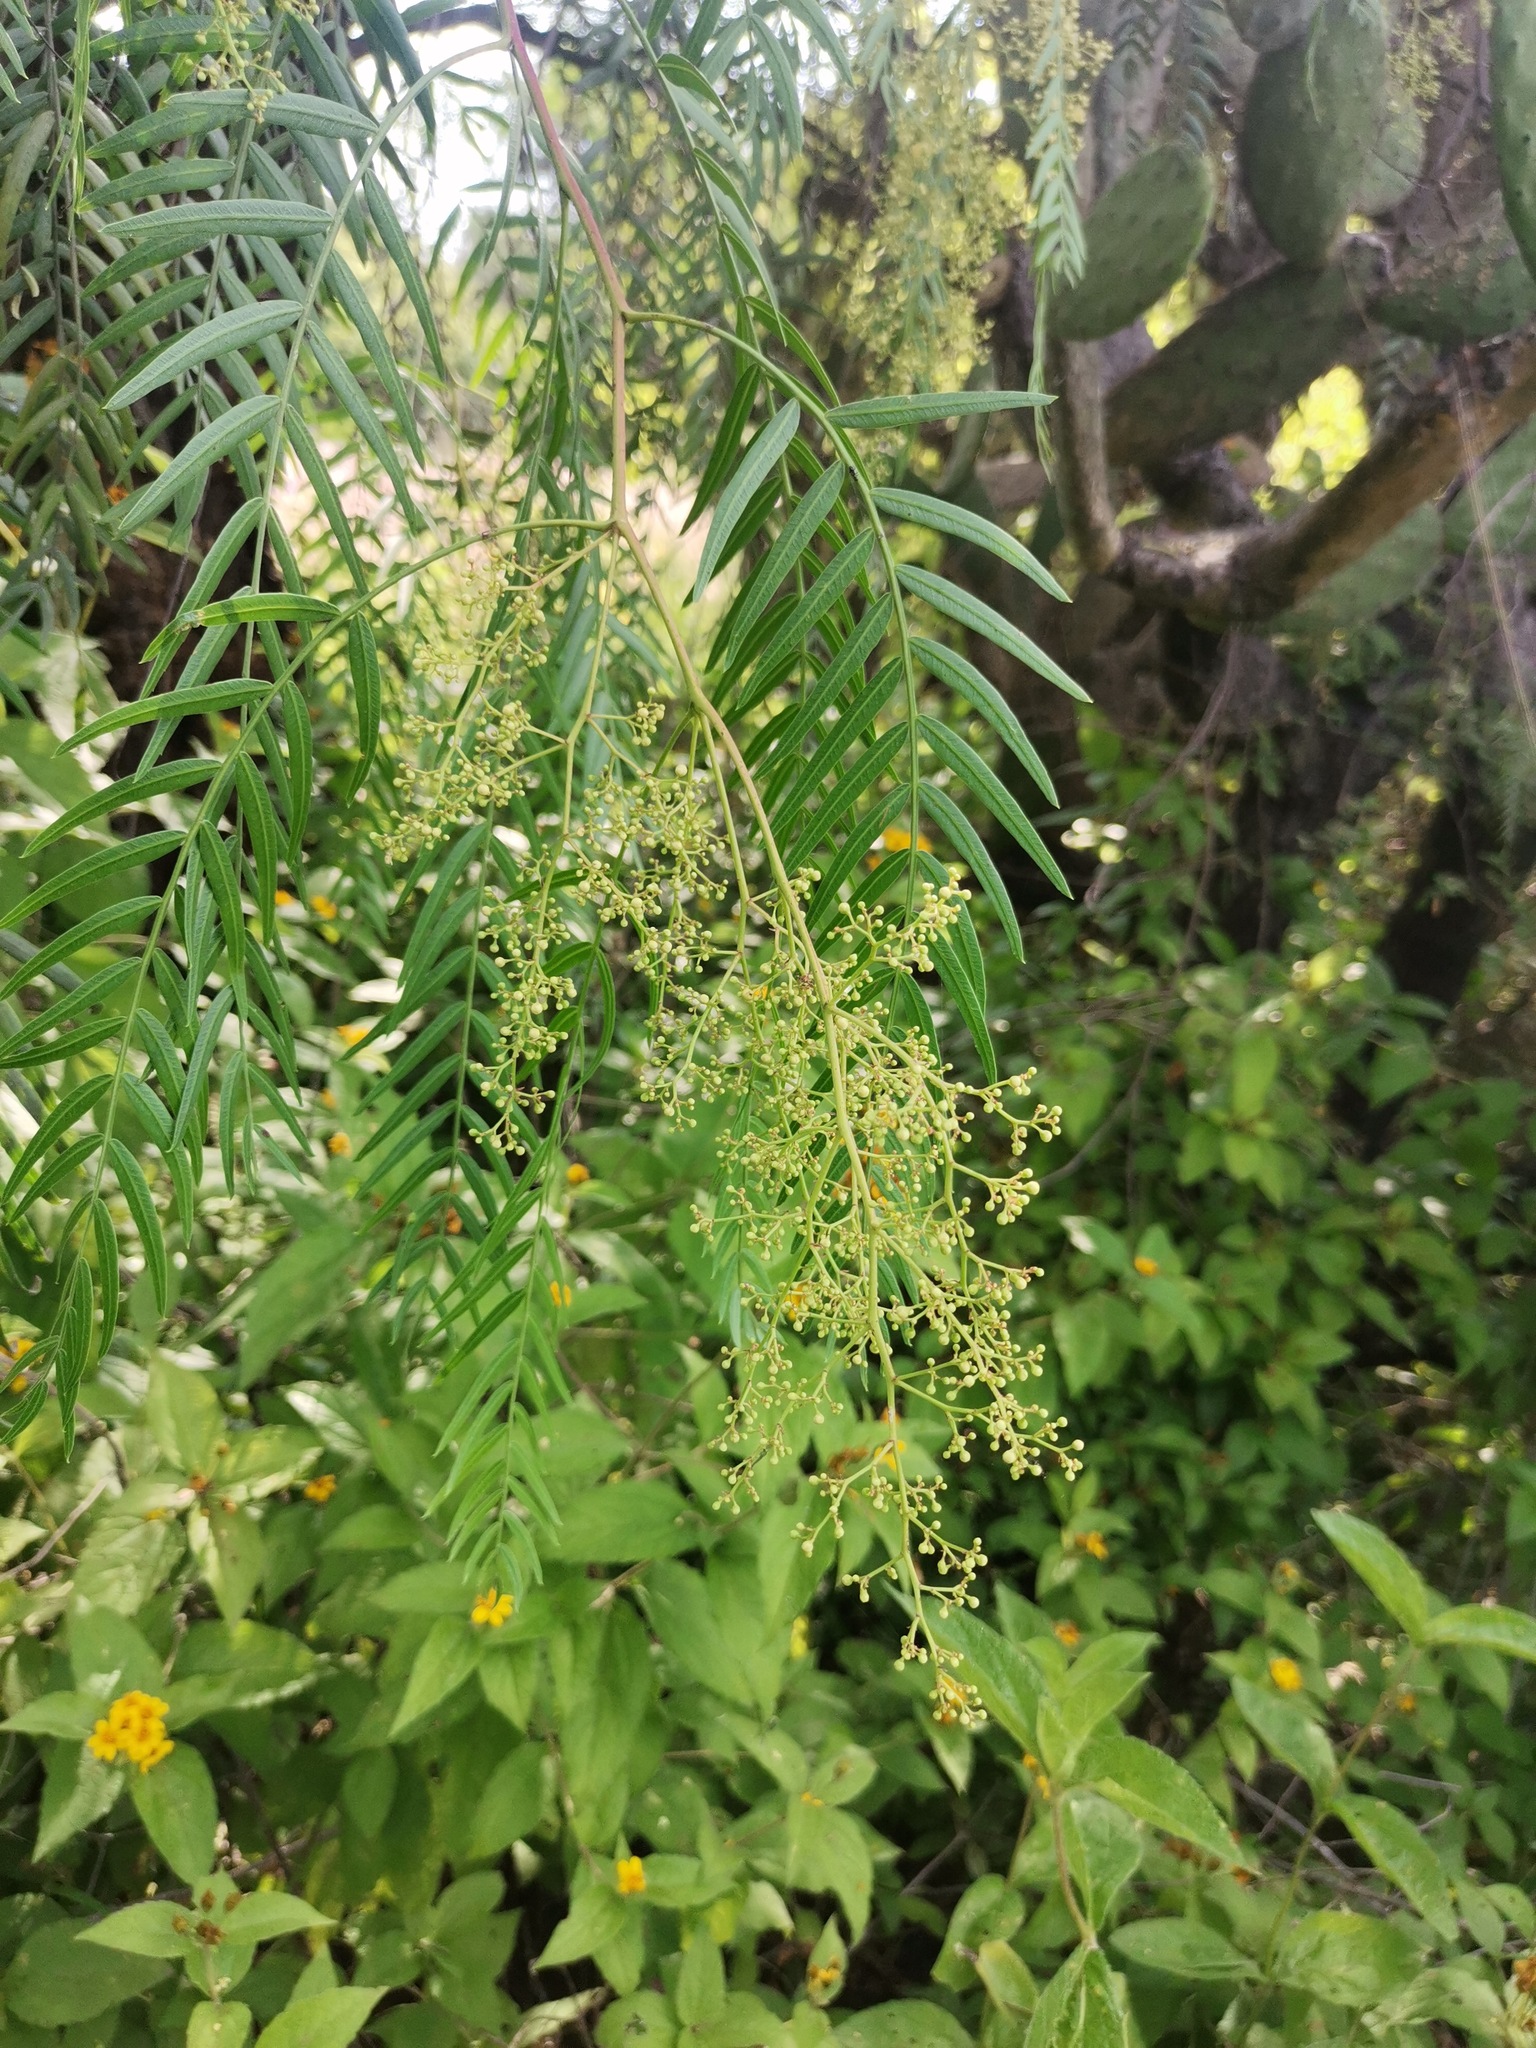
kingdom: Plantae
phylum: Tracheophyta
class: Magnoliopsida
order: Sapindales
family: Anacardiaceae
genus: Schinus
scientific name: Schinus molle
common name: Peruvian peppertree
